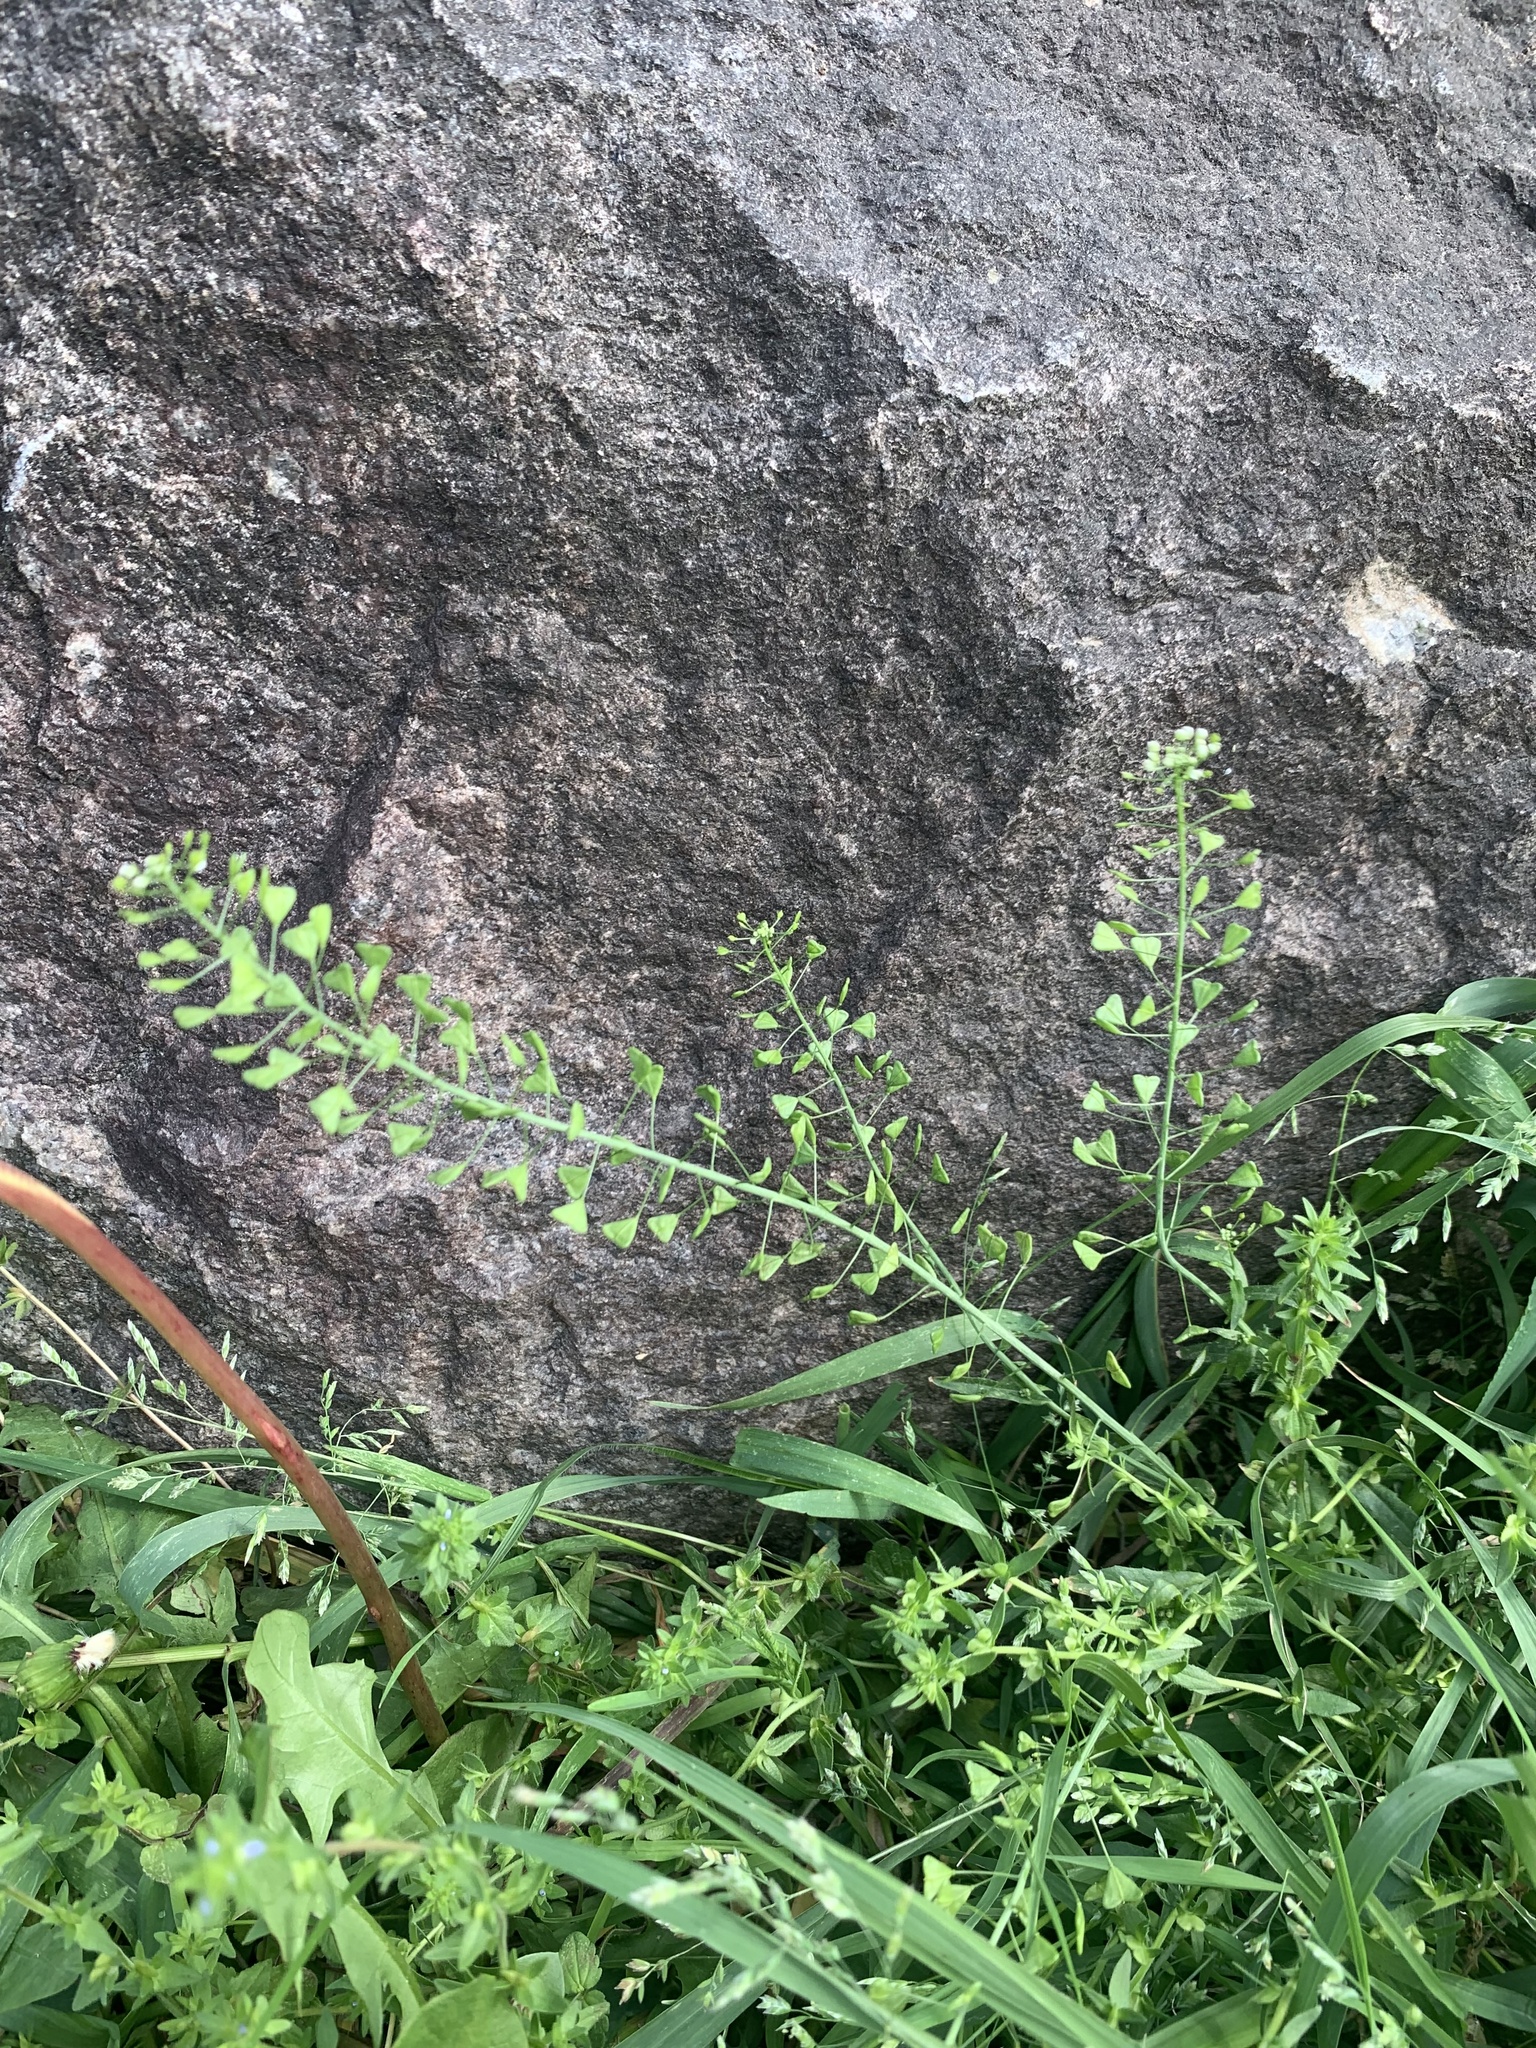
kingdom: Plantae
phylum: Tracheophyta
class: Magnoliopsida
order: Brassicales
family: Brassicaceae
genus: Capsella
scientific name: Capsella bursa-pastoris
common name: Shepherd's purse
